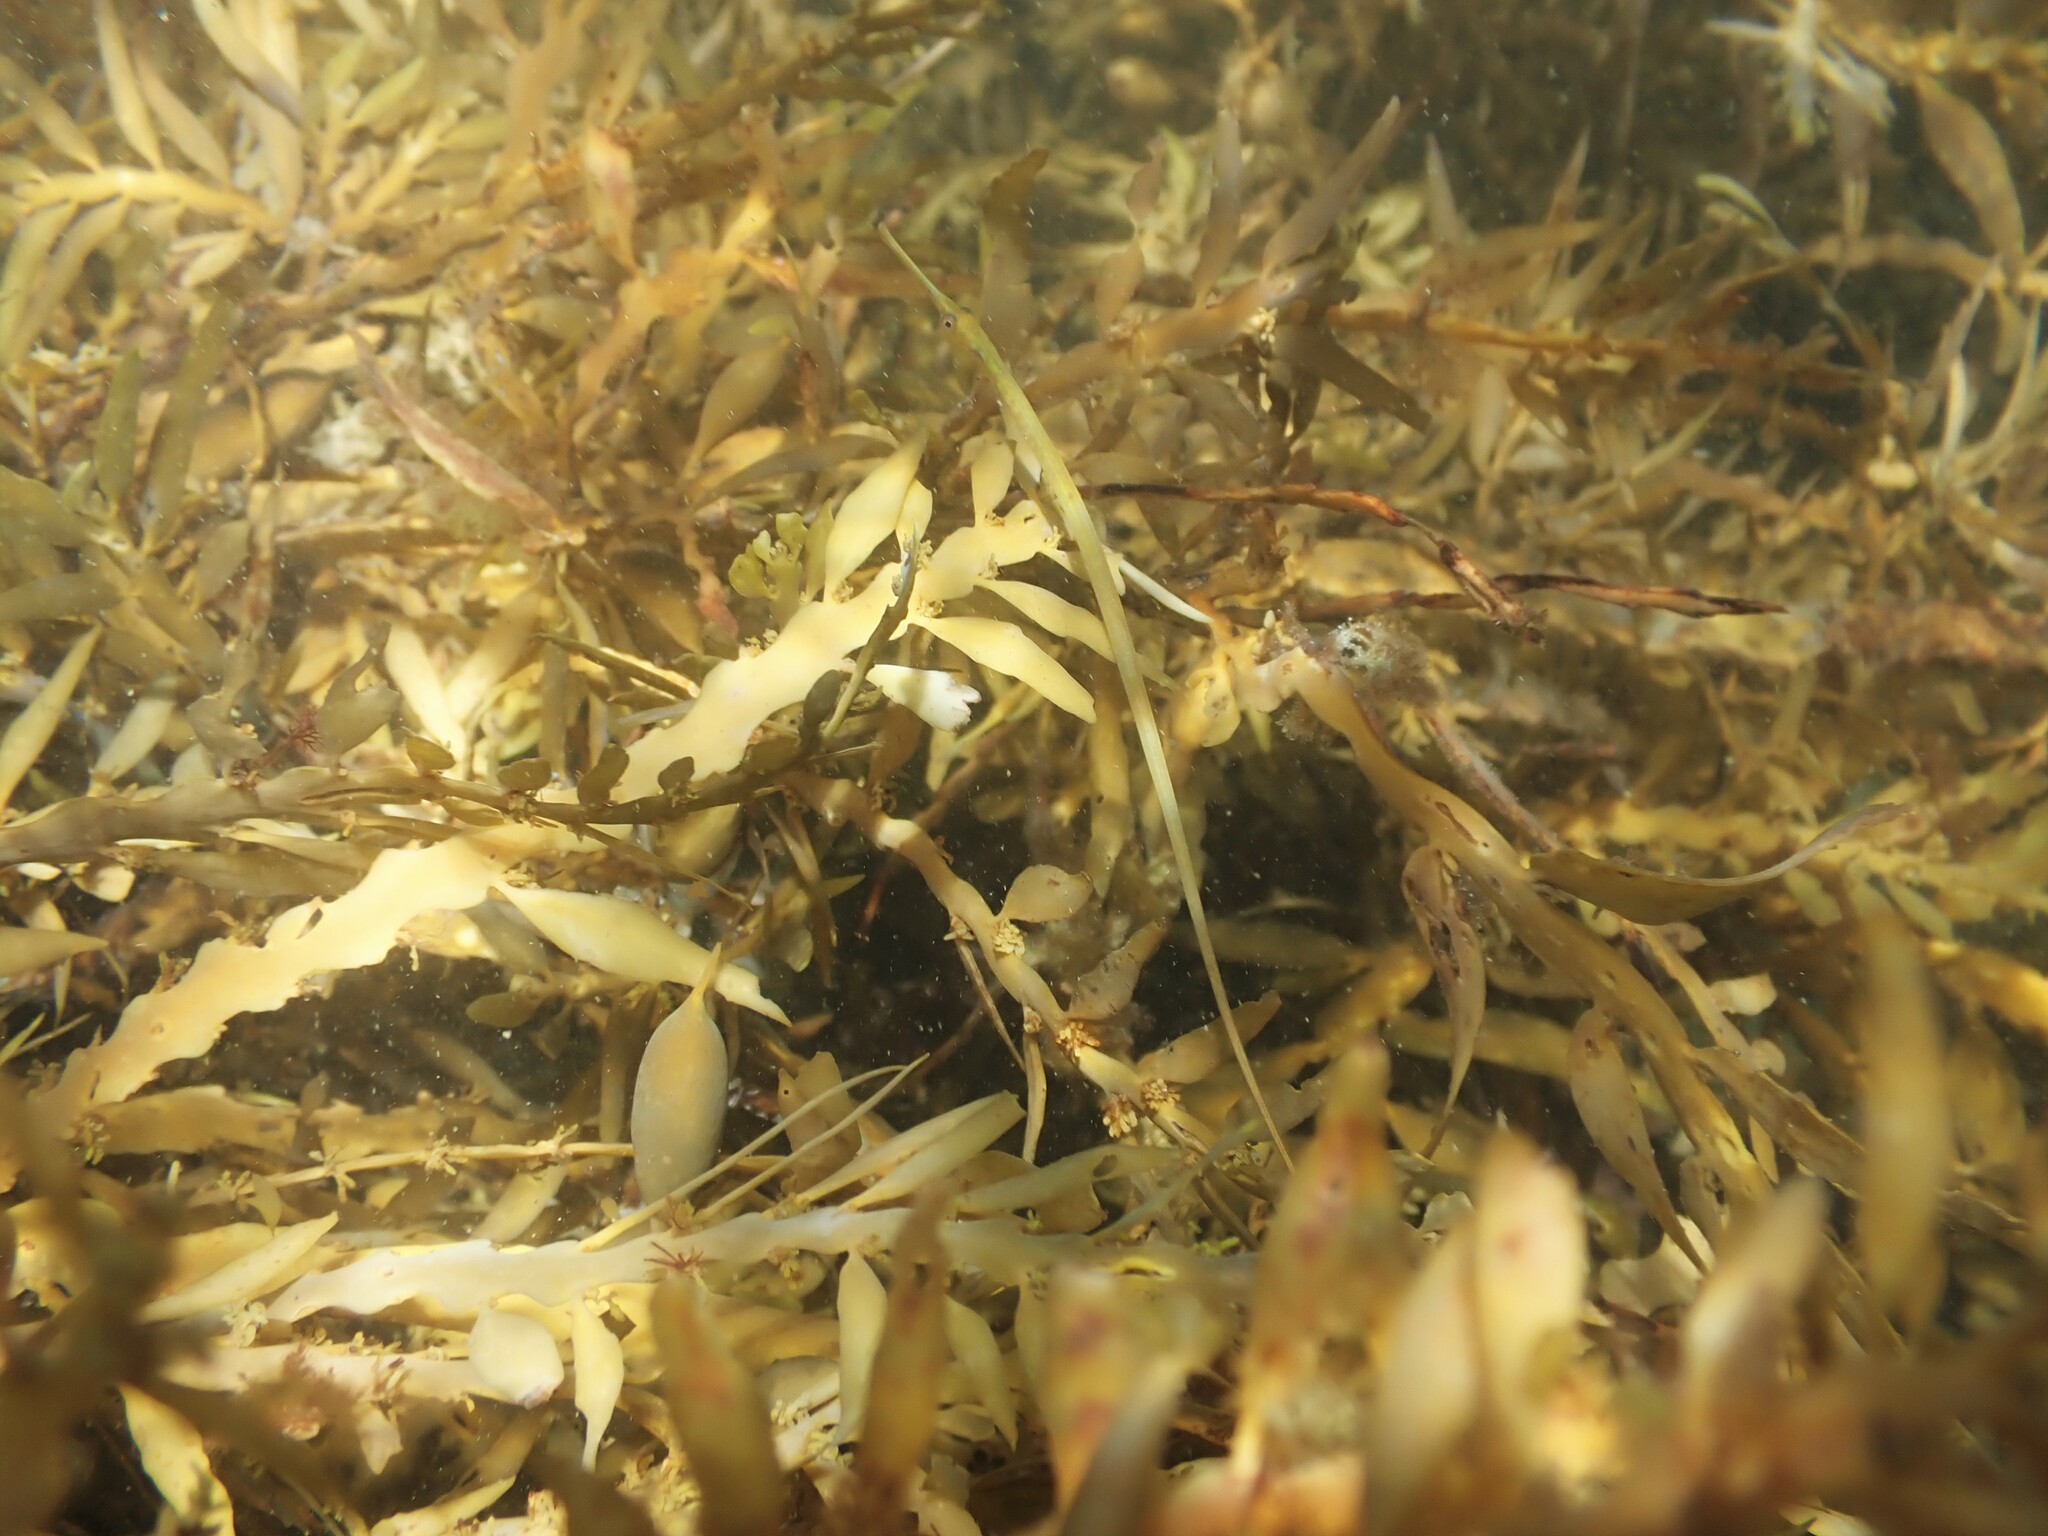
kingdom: Animalia
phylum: Chordata
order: Syngnathiformes
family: Syngnathidae
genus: Stigmatopora
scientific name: Stigmatopora macropterygia
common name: Long-snouted pipefish
